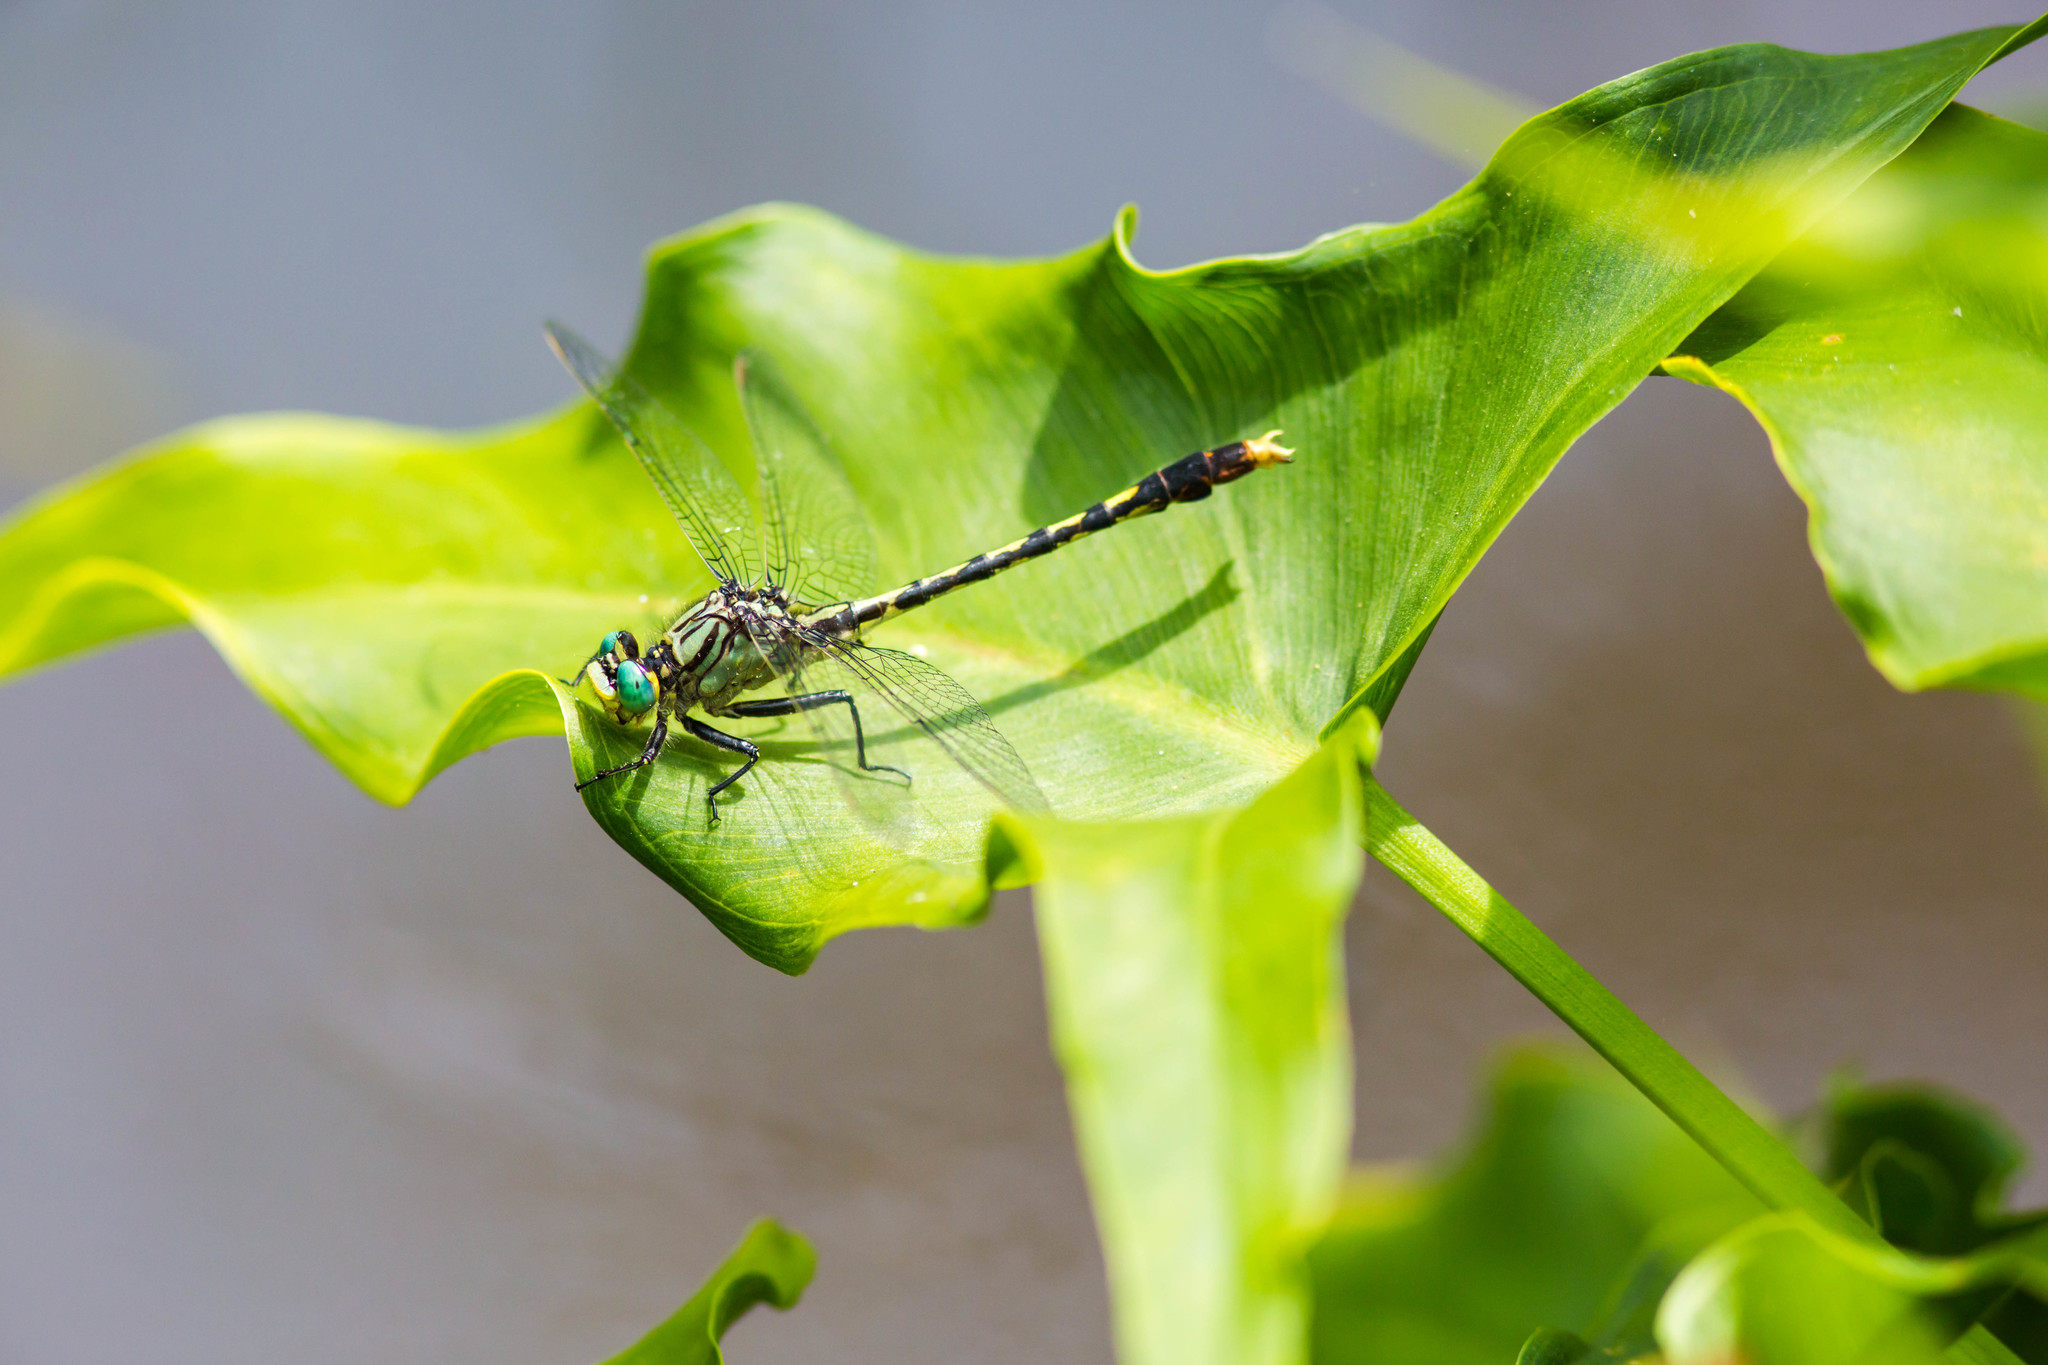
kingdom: Animalia
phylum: Arthropoda
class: Insecta
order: Odonata
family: Gomphidae
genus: Arigomphus
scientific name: Arigomphus villosipes
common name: Unicorn clubtail
